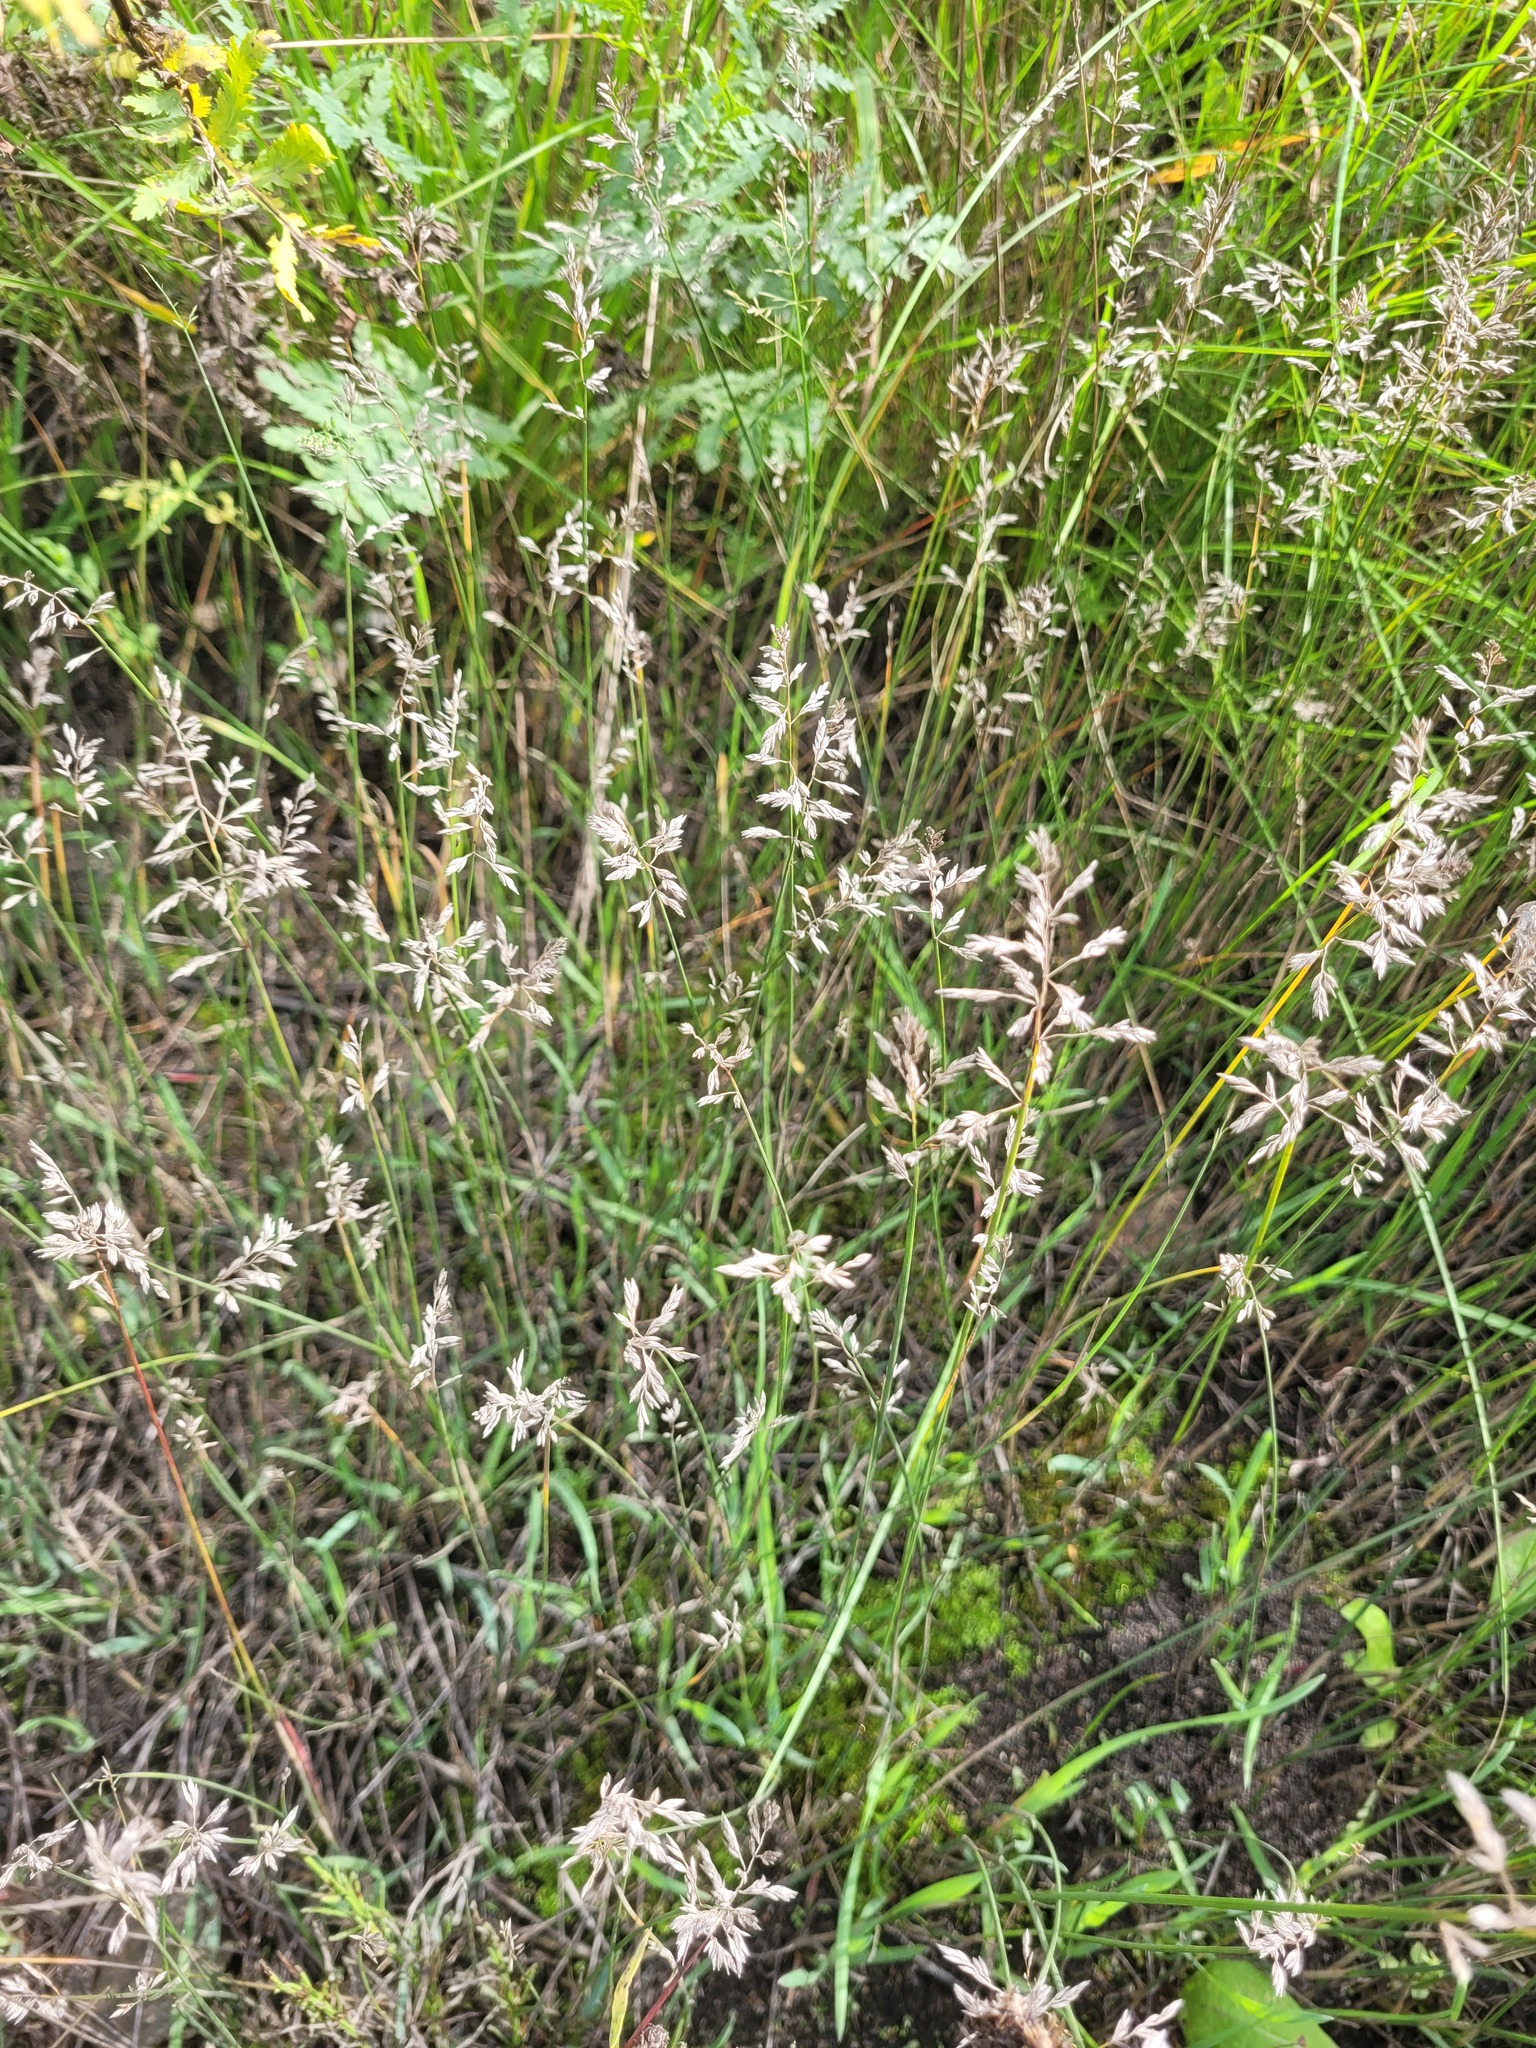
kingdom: Plantae
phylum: Tracheophyta
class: Liliopsida
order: Poales
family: Poaceae
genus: Poa
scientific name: Poa compressa
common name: Canada bluegrass
